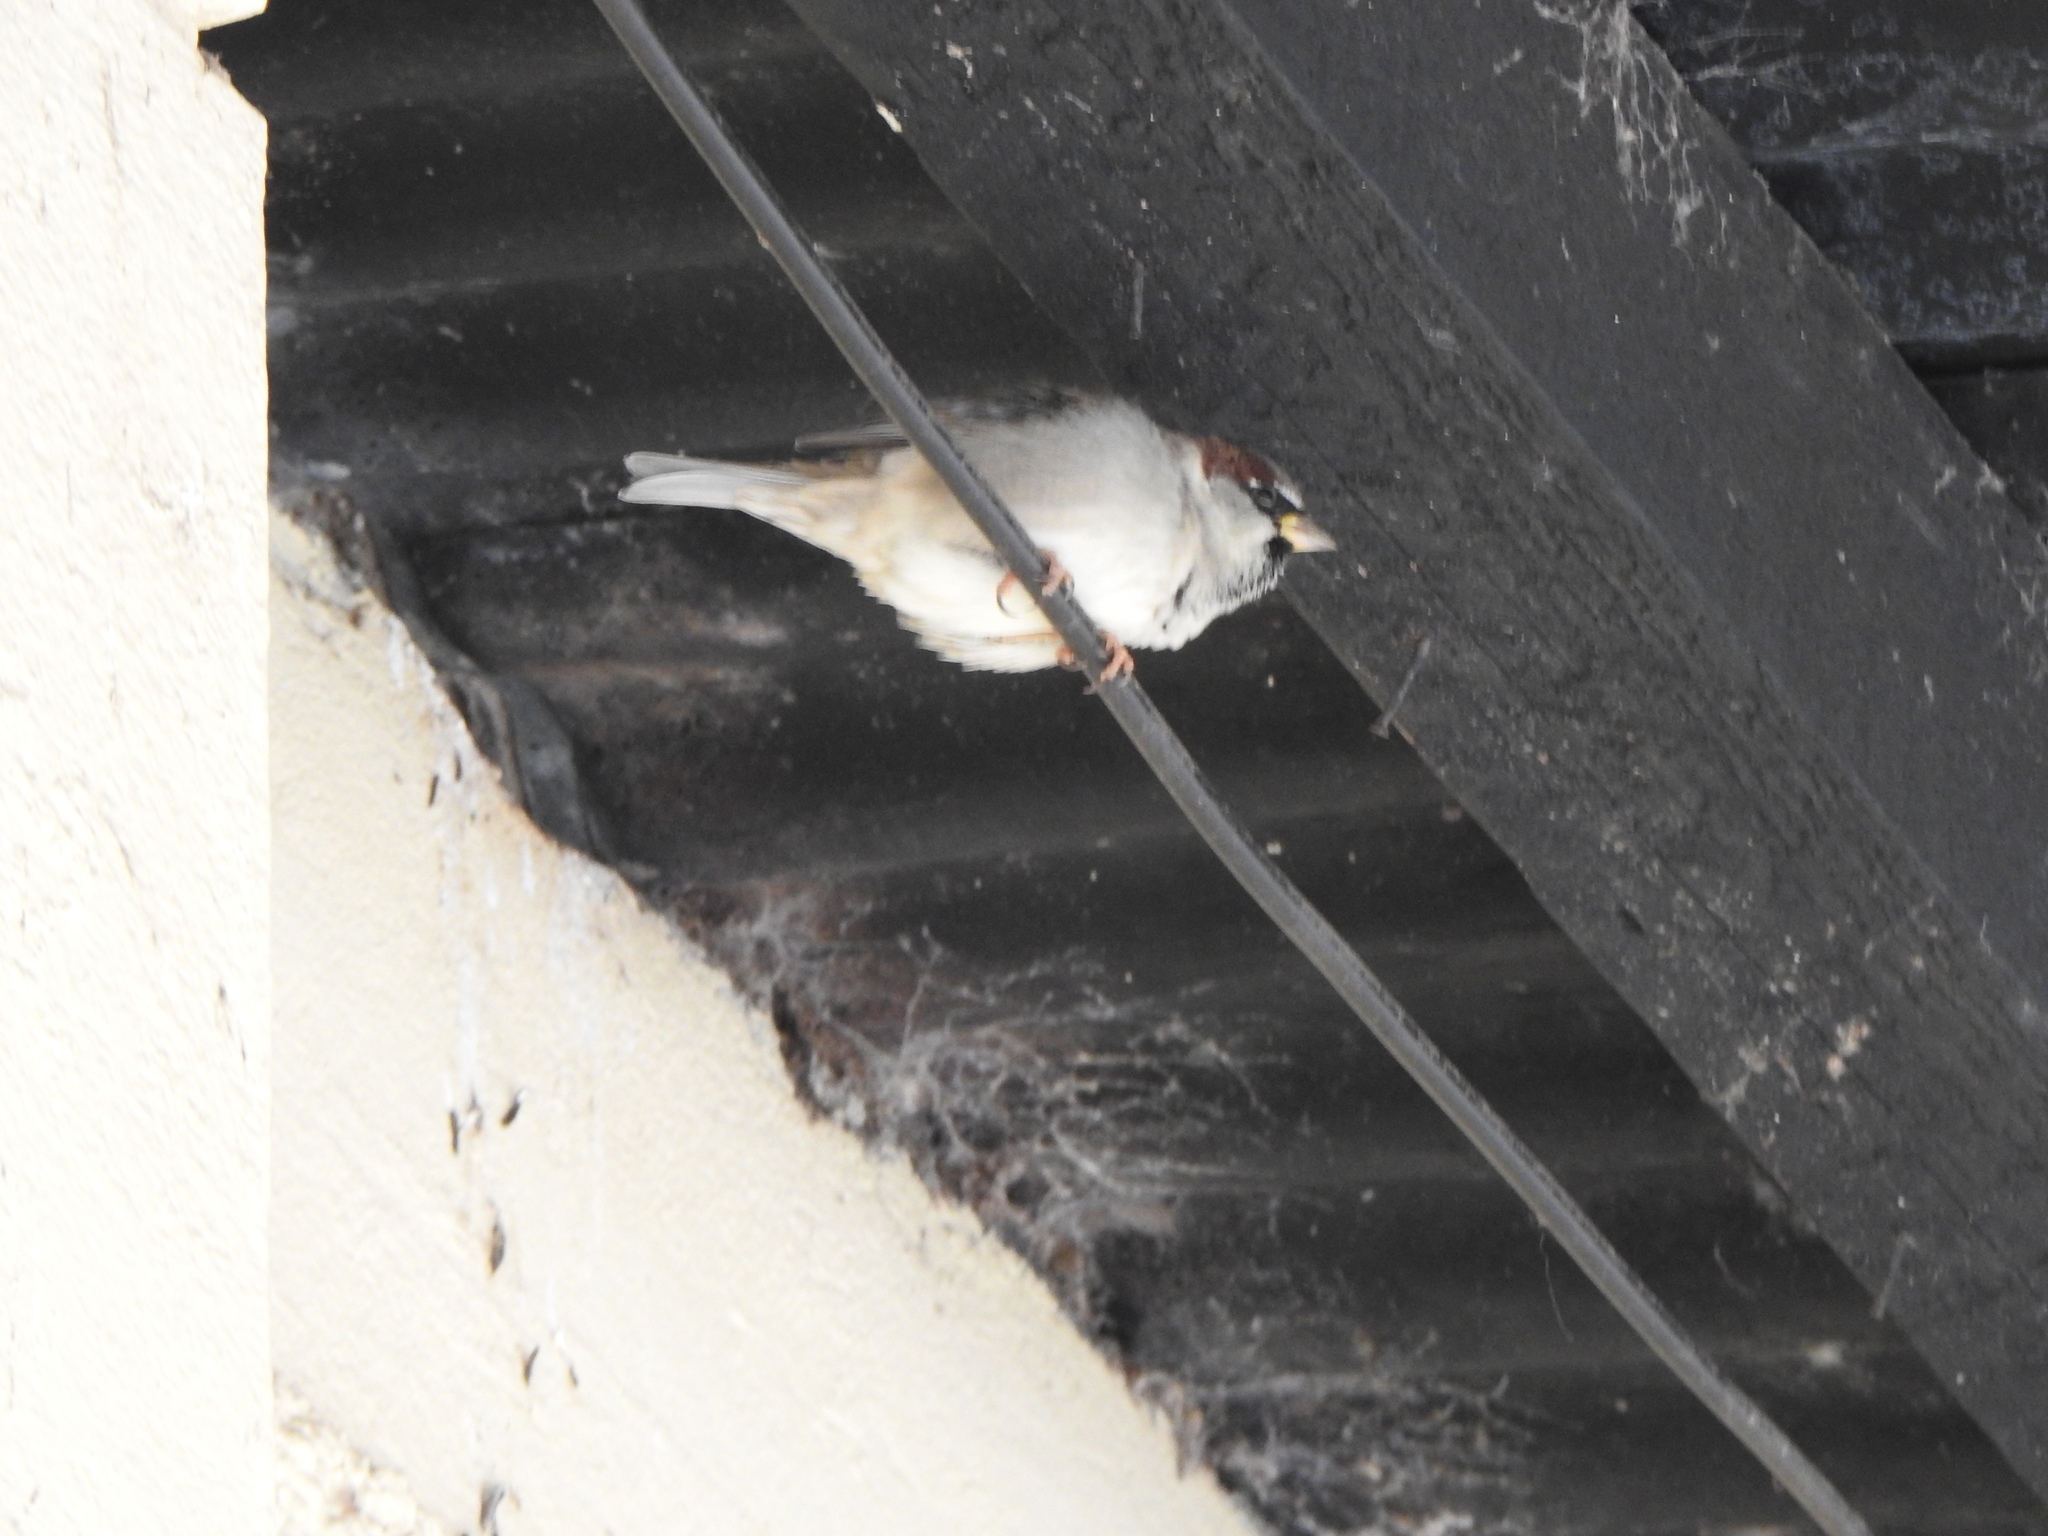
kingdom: Animalia
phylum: Chordata
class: Aves
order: Passeriformes
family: Passeridae
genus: Passer
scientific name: Passer domesticus
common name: House sparrow
